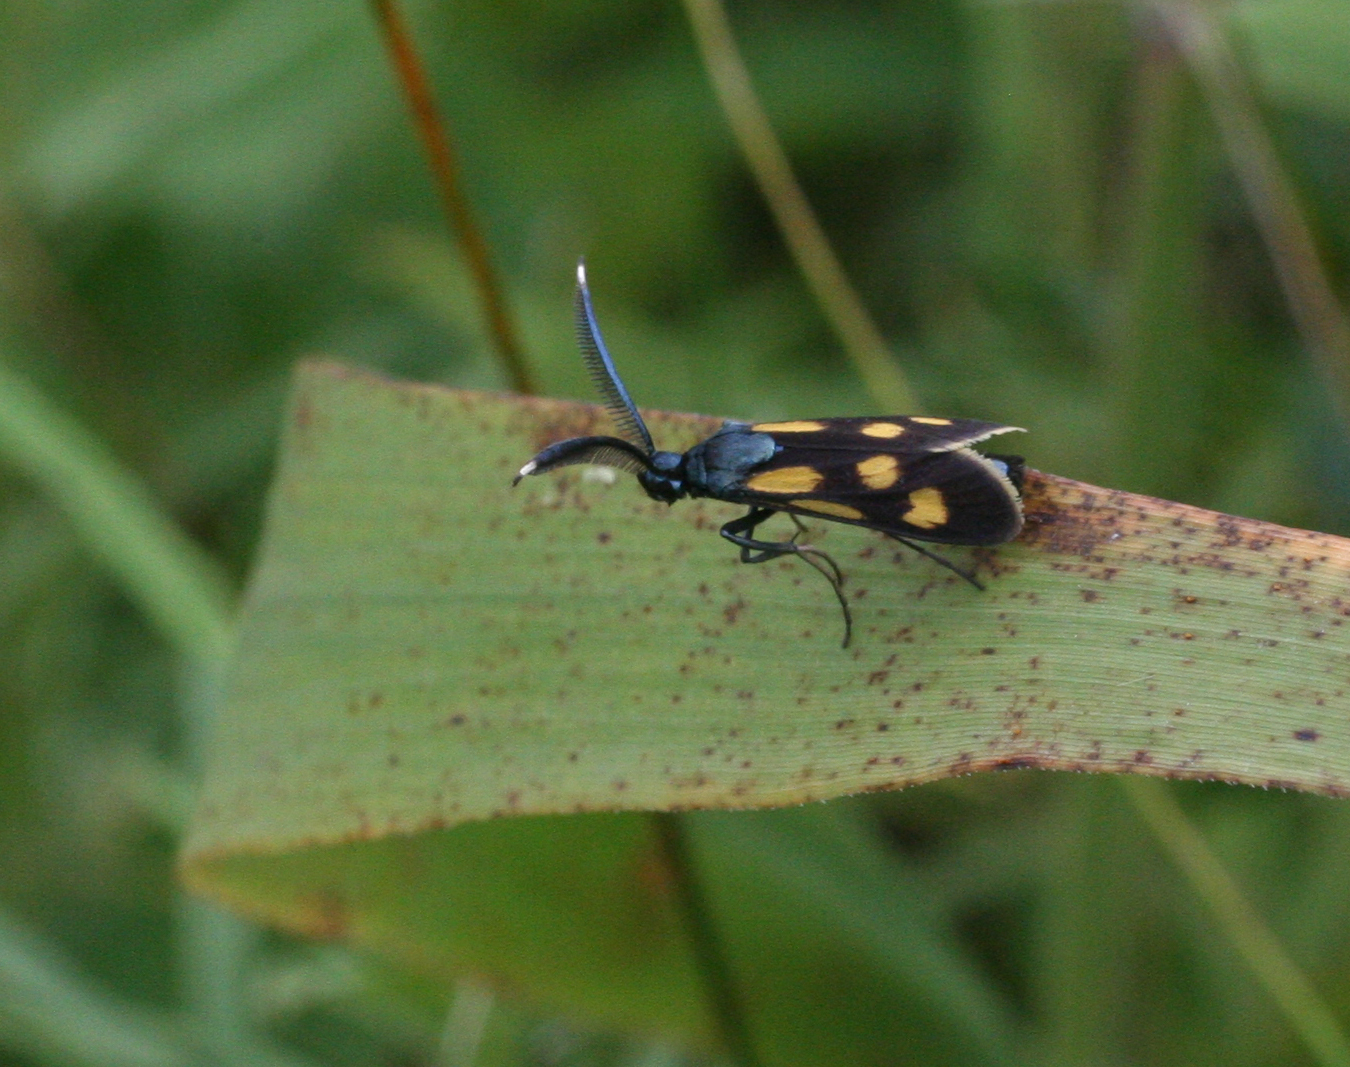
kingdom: Animalia
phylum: Arthropoda
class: Insecta
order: Lepidoptera
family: Zygaenidae
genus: Artona
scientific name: Artona
